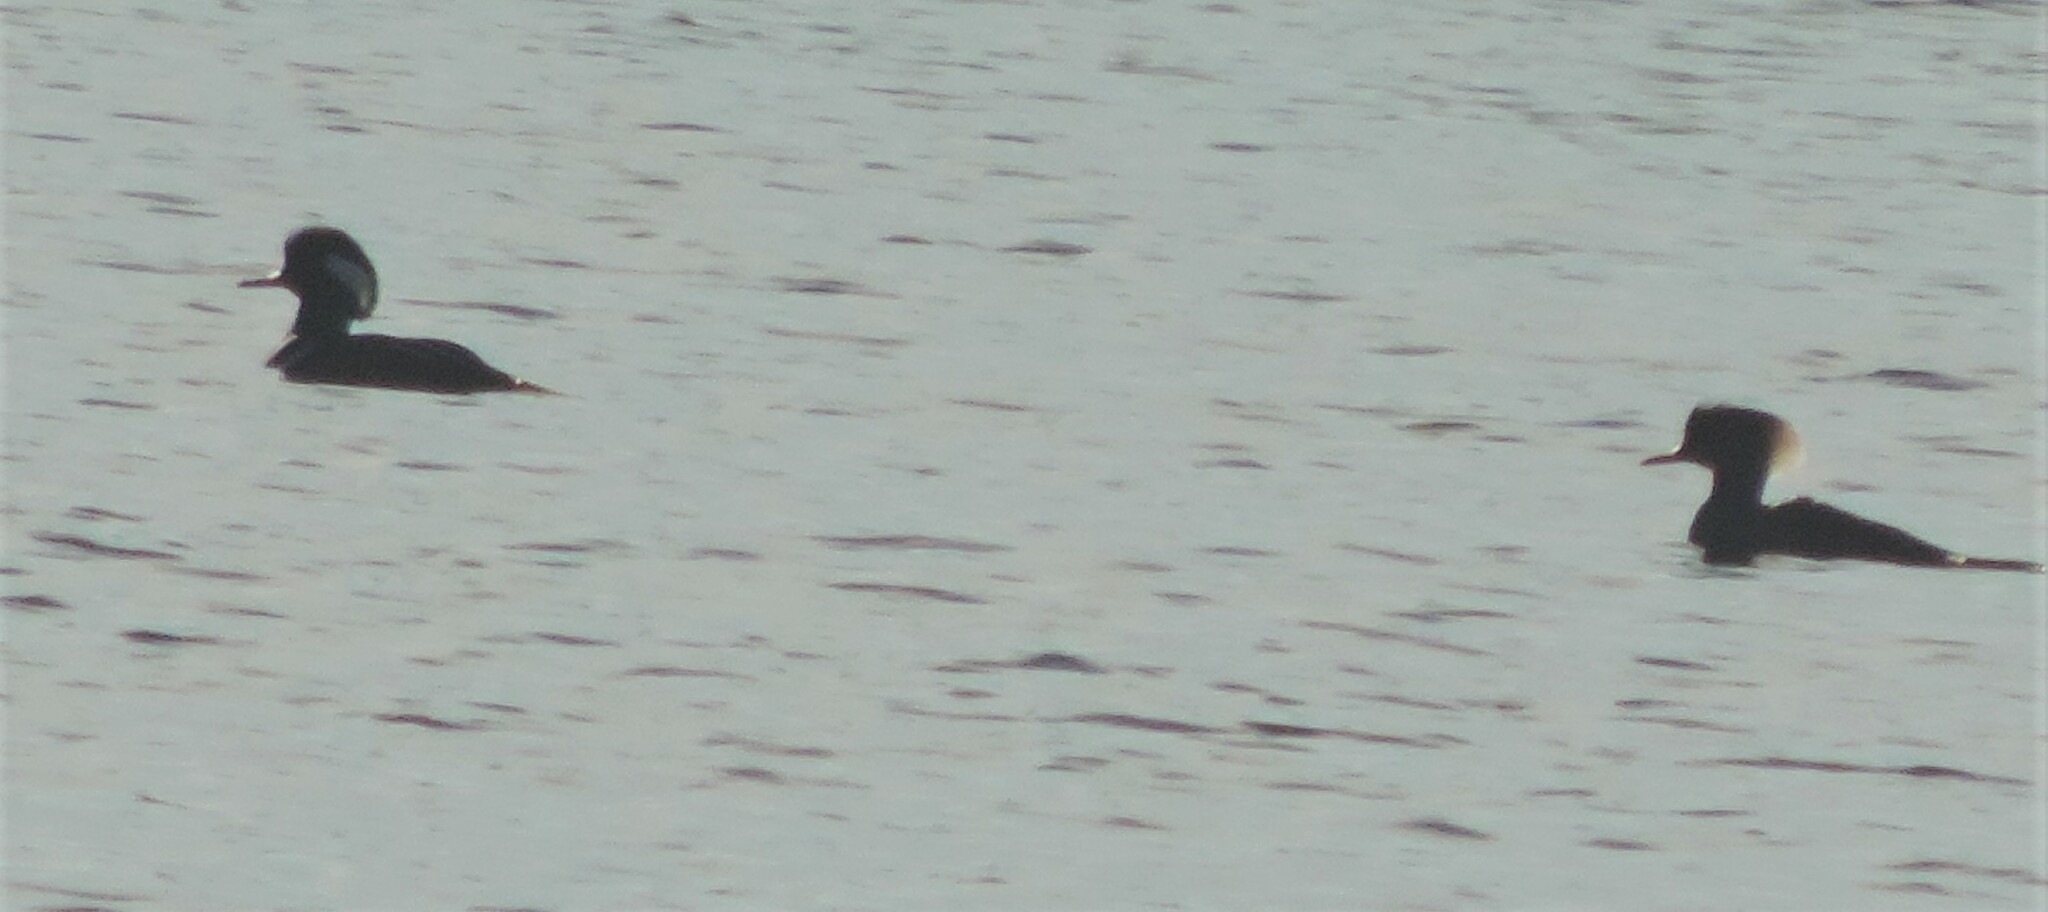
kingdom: Animalia
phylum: Chordata
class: Aves
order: Anseriformes
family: Anatidae
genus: Lophodytes
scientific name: Lophodytes cucullatus
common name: Hooded merganser
